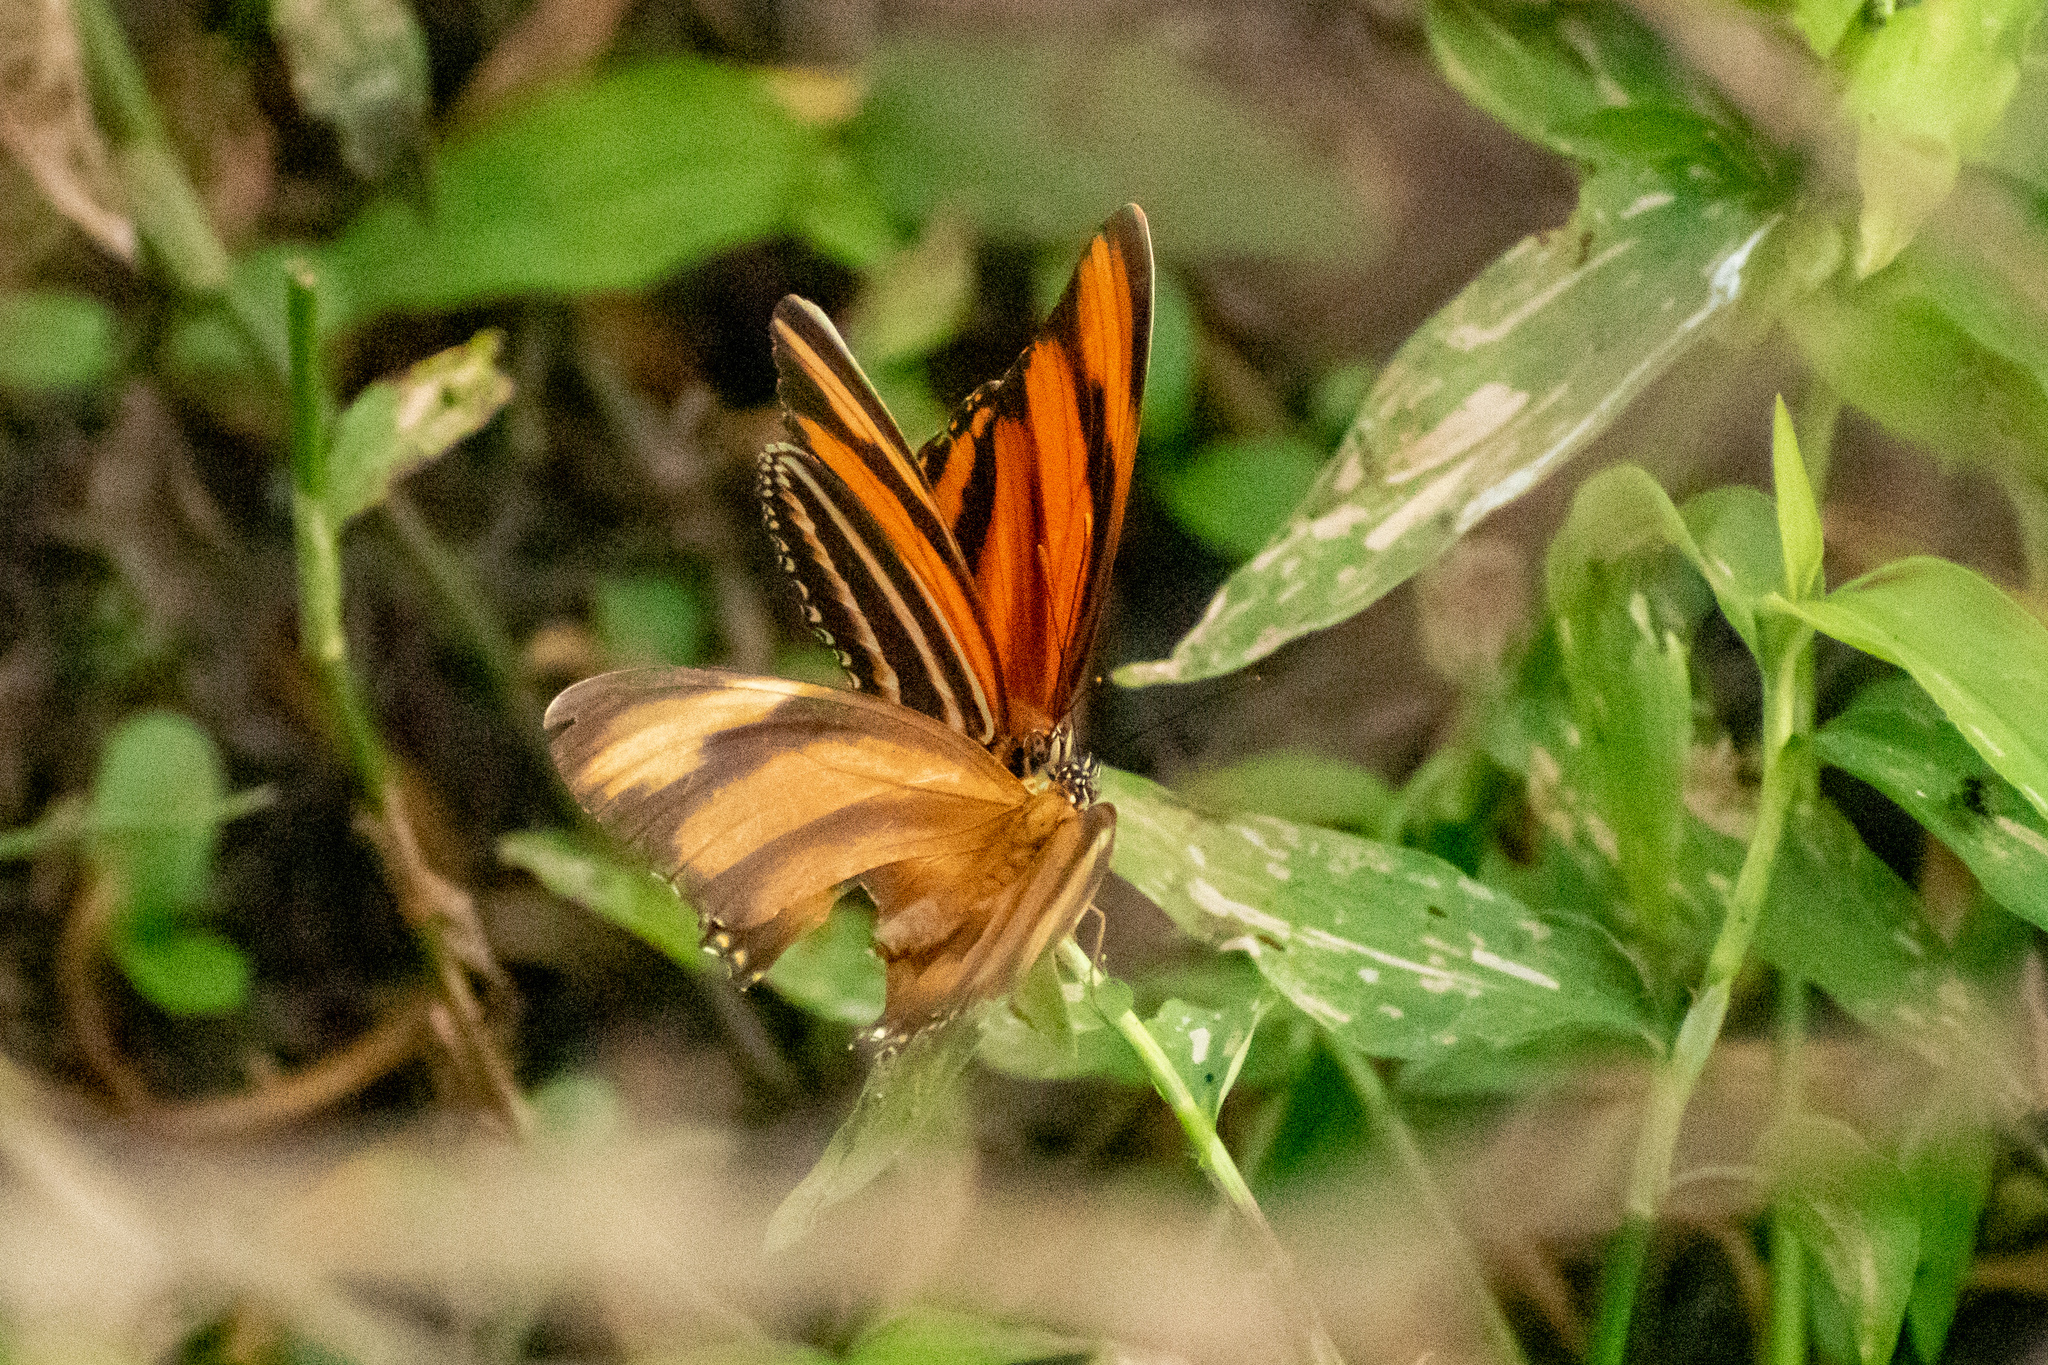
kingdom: Animalia
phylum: Arthropoda
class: Insecta
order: Lepidoptera
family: Nymphalidae
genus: Dryadula
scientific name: Dryadula phaetusa
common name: Banded orange heliconian
